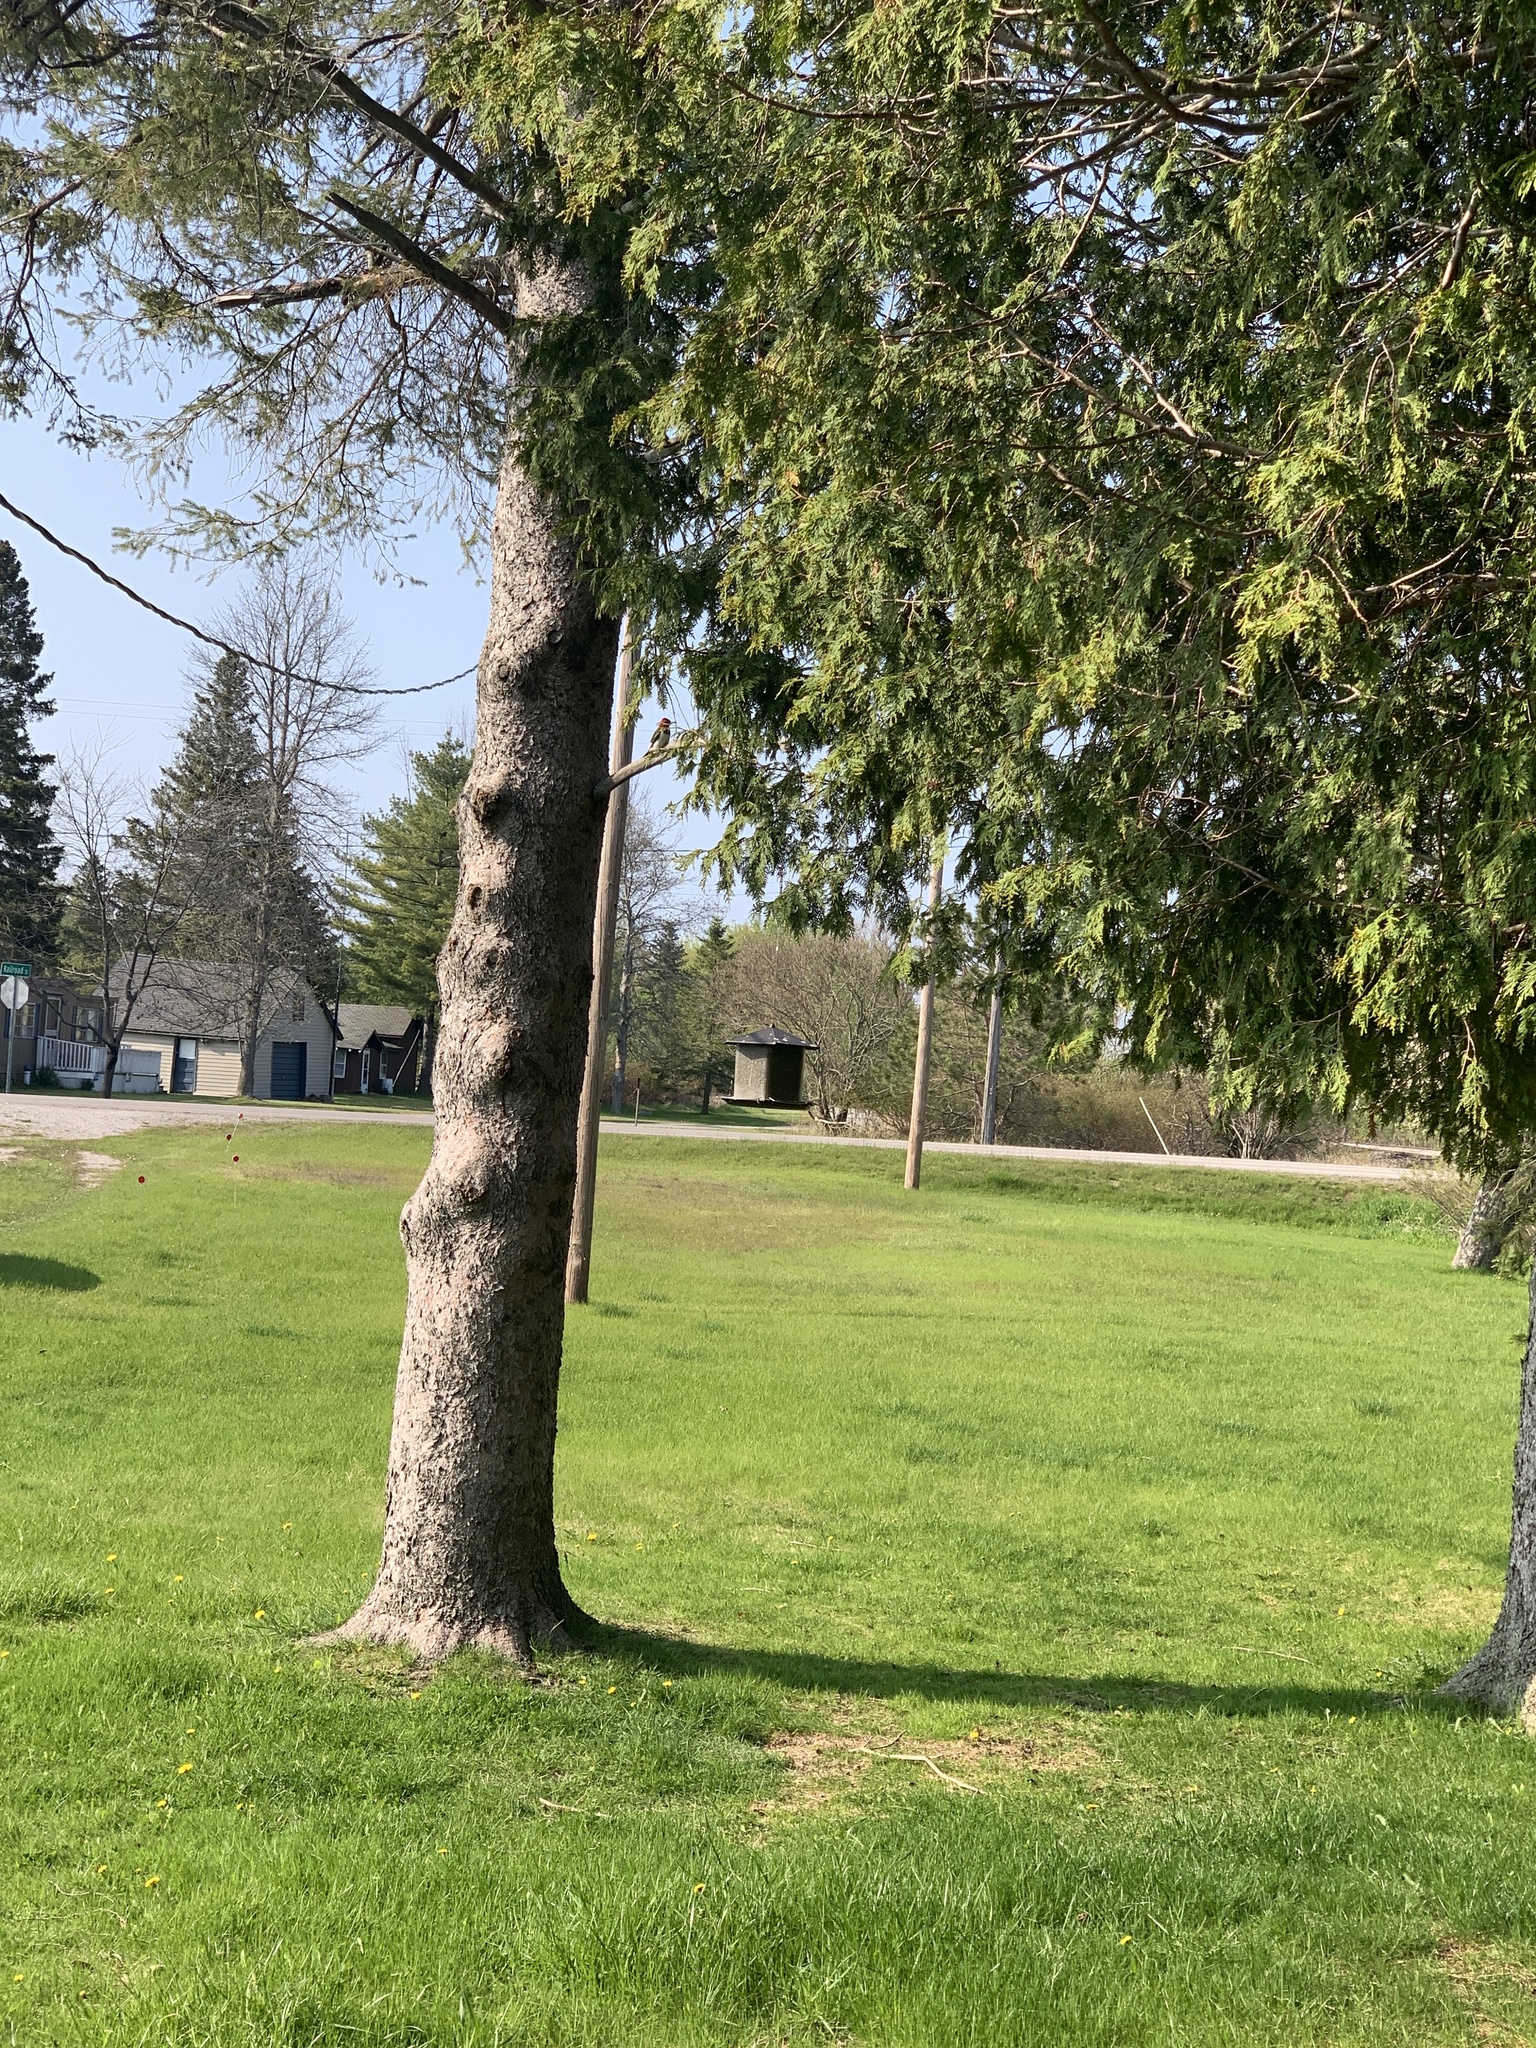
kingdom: Animalia
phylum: Chordata
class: Aves
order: Piciformes
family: Picidae
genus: Melanerpes
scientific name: Melanerpes erythrocephalus
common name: Red-headed woodpecker
